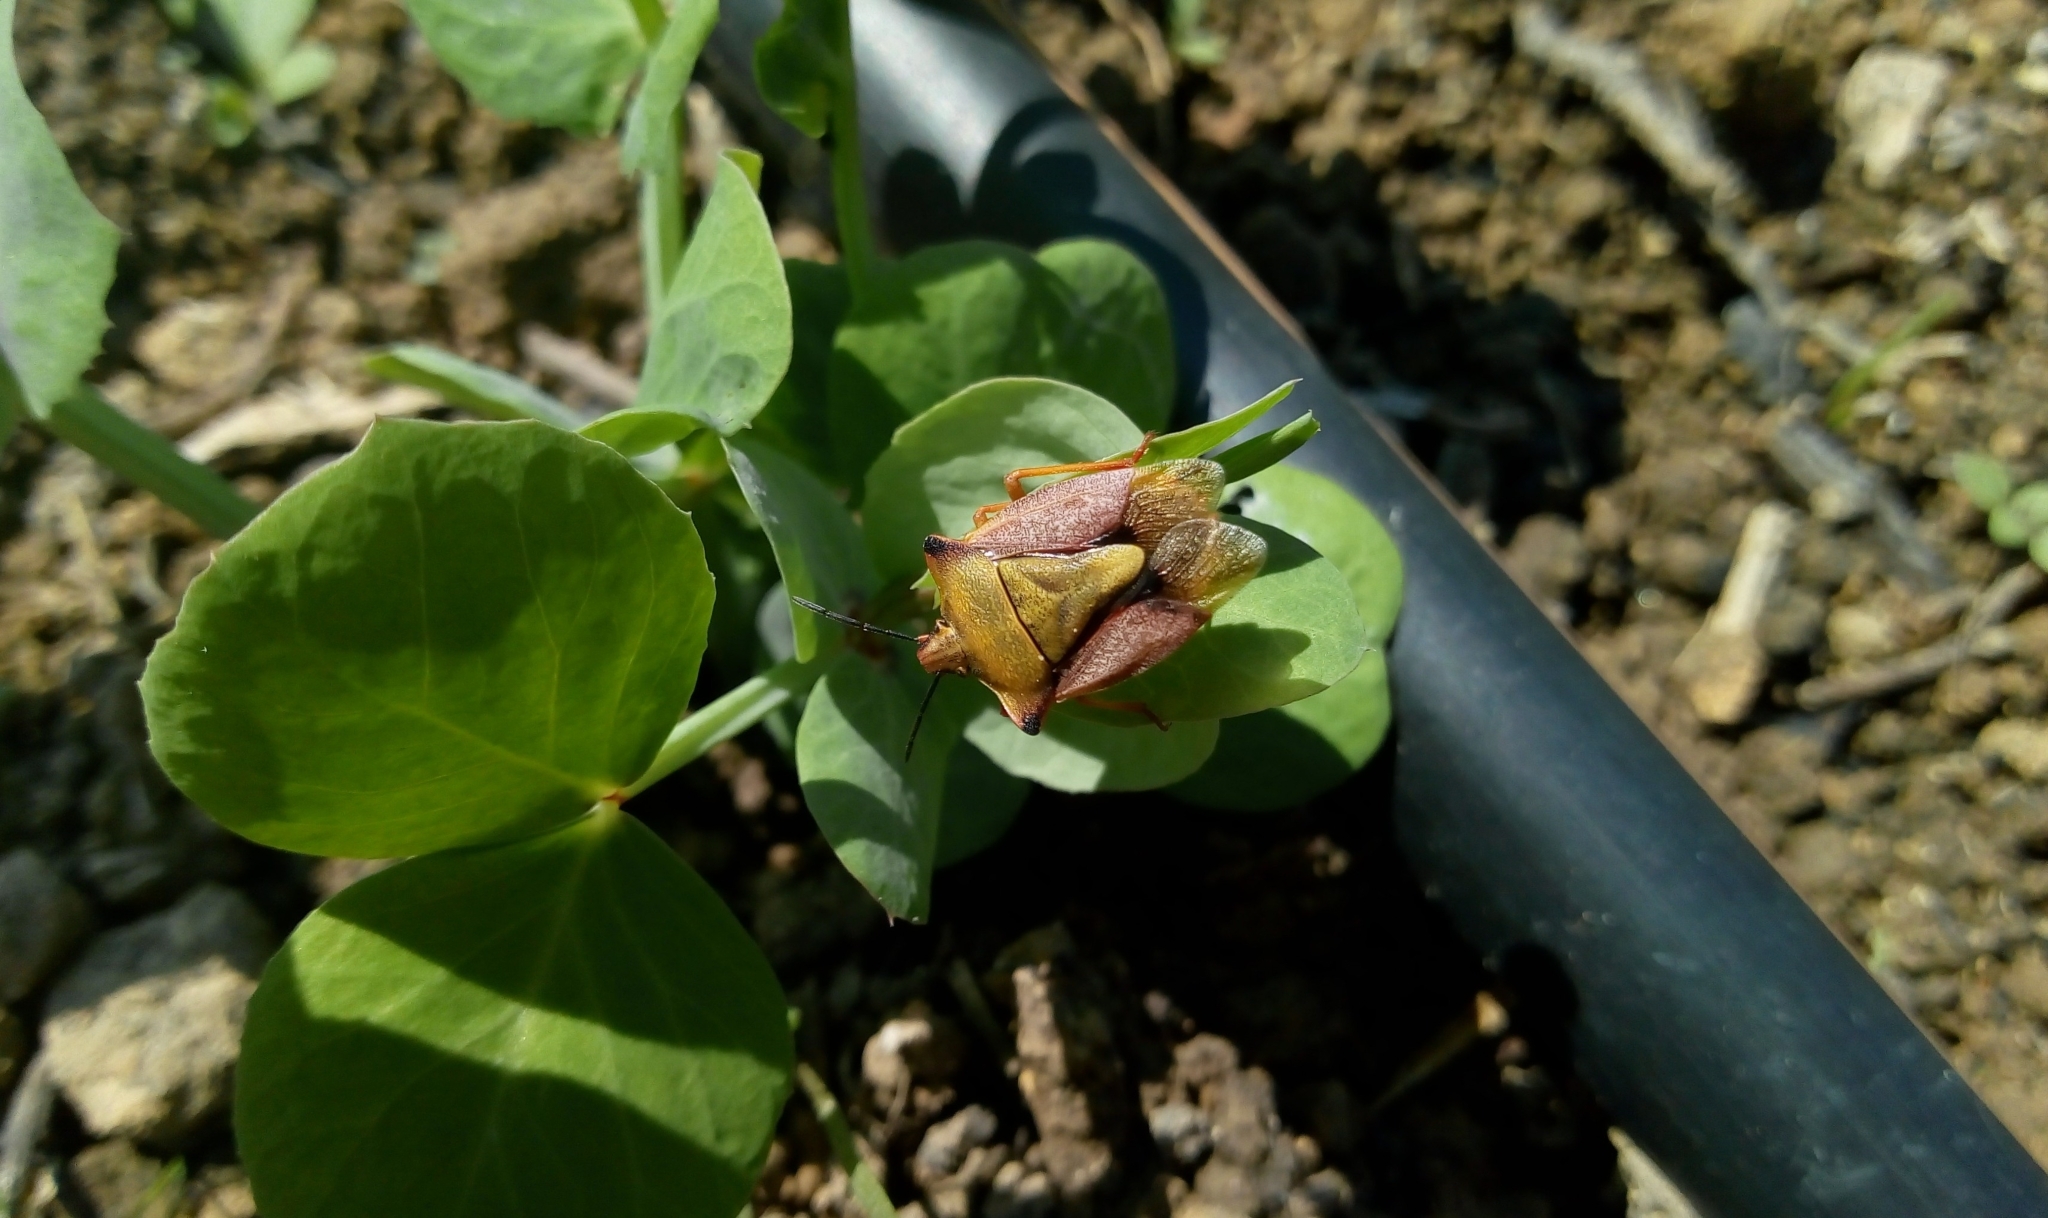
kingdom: Animalia
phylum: Arthropoda
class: Insecta
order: Hemiptera
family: Pentatomidae
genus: Carpocoris
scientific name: Carpocoris mediterraneus
